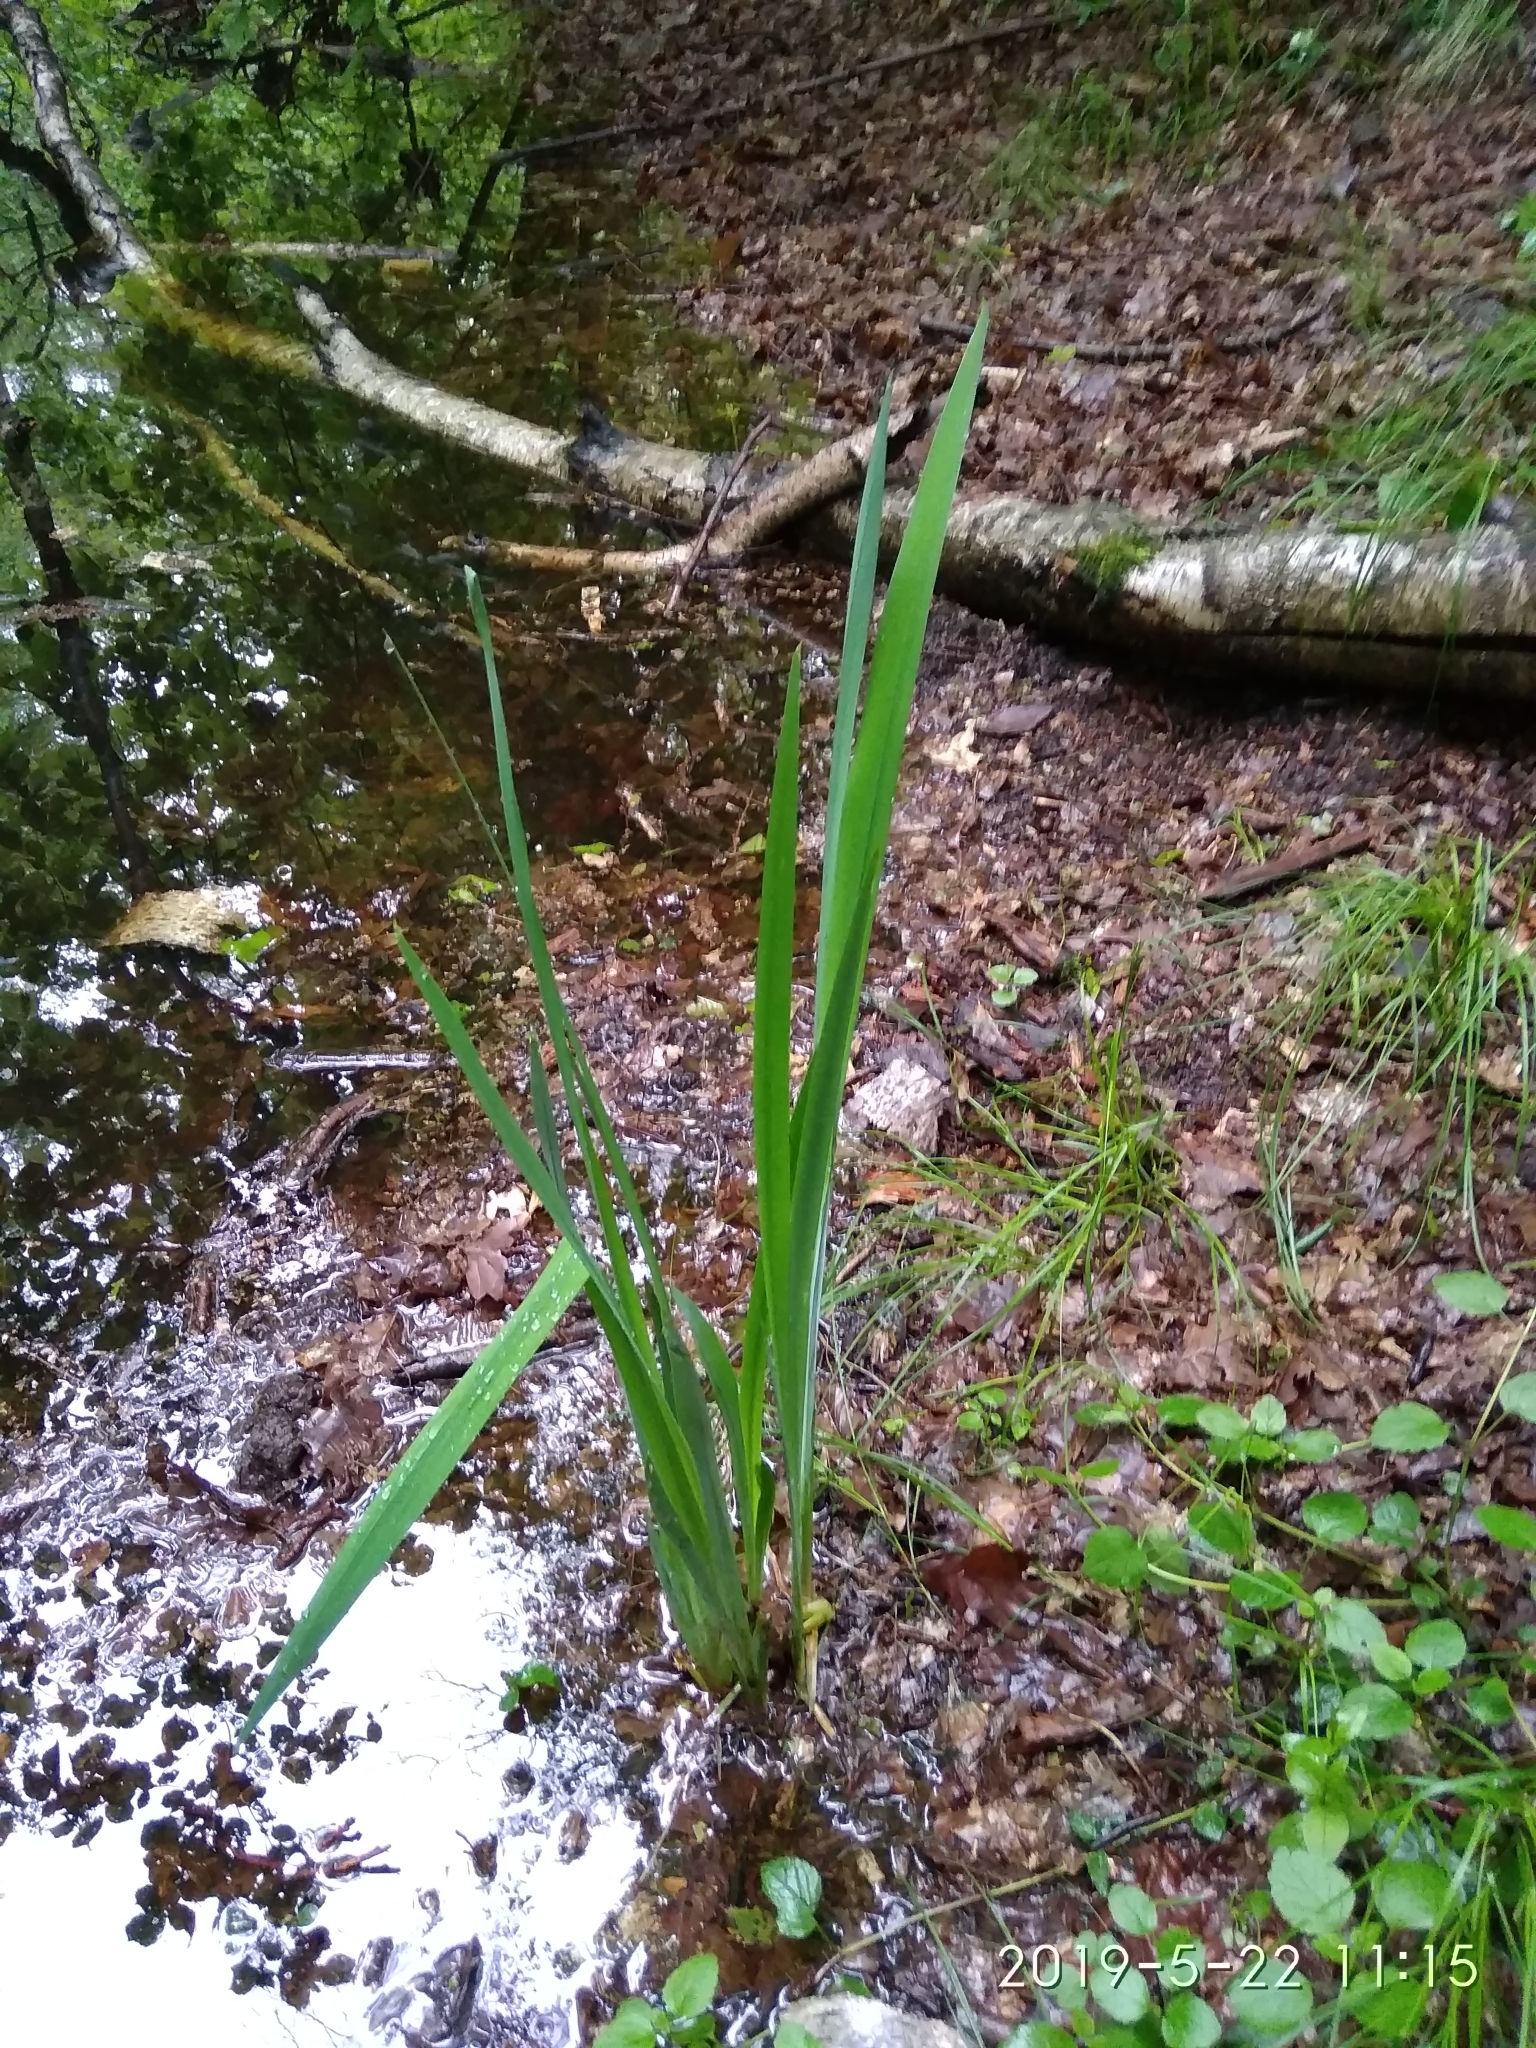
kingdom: Plantae
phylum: Tracheophyta
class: Liliopsida
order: Asparagales
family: Iridaceae
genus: Iris
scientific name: Iris pseudacorus
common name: Yellow flag
